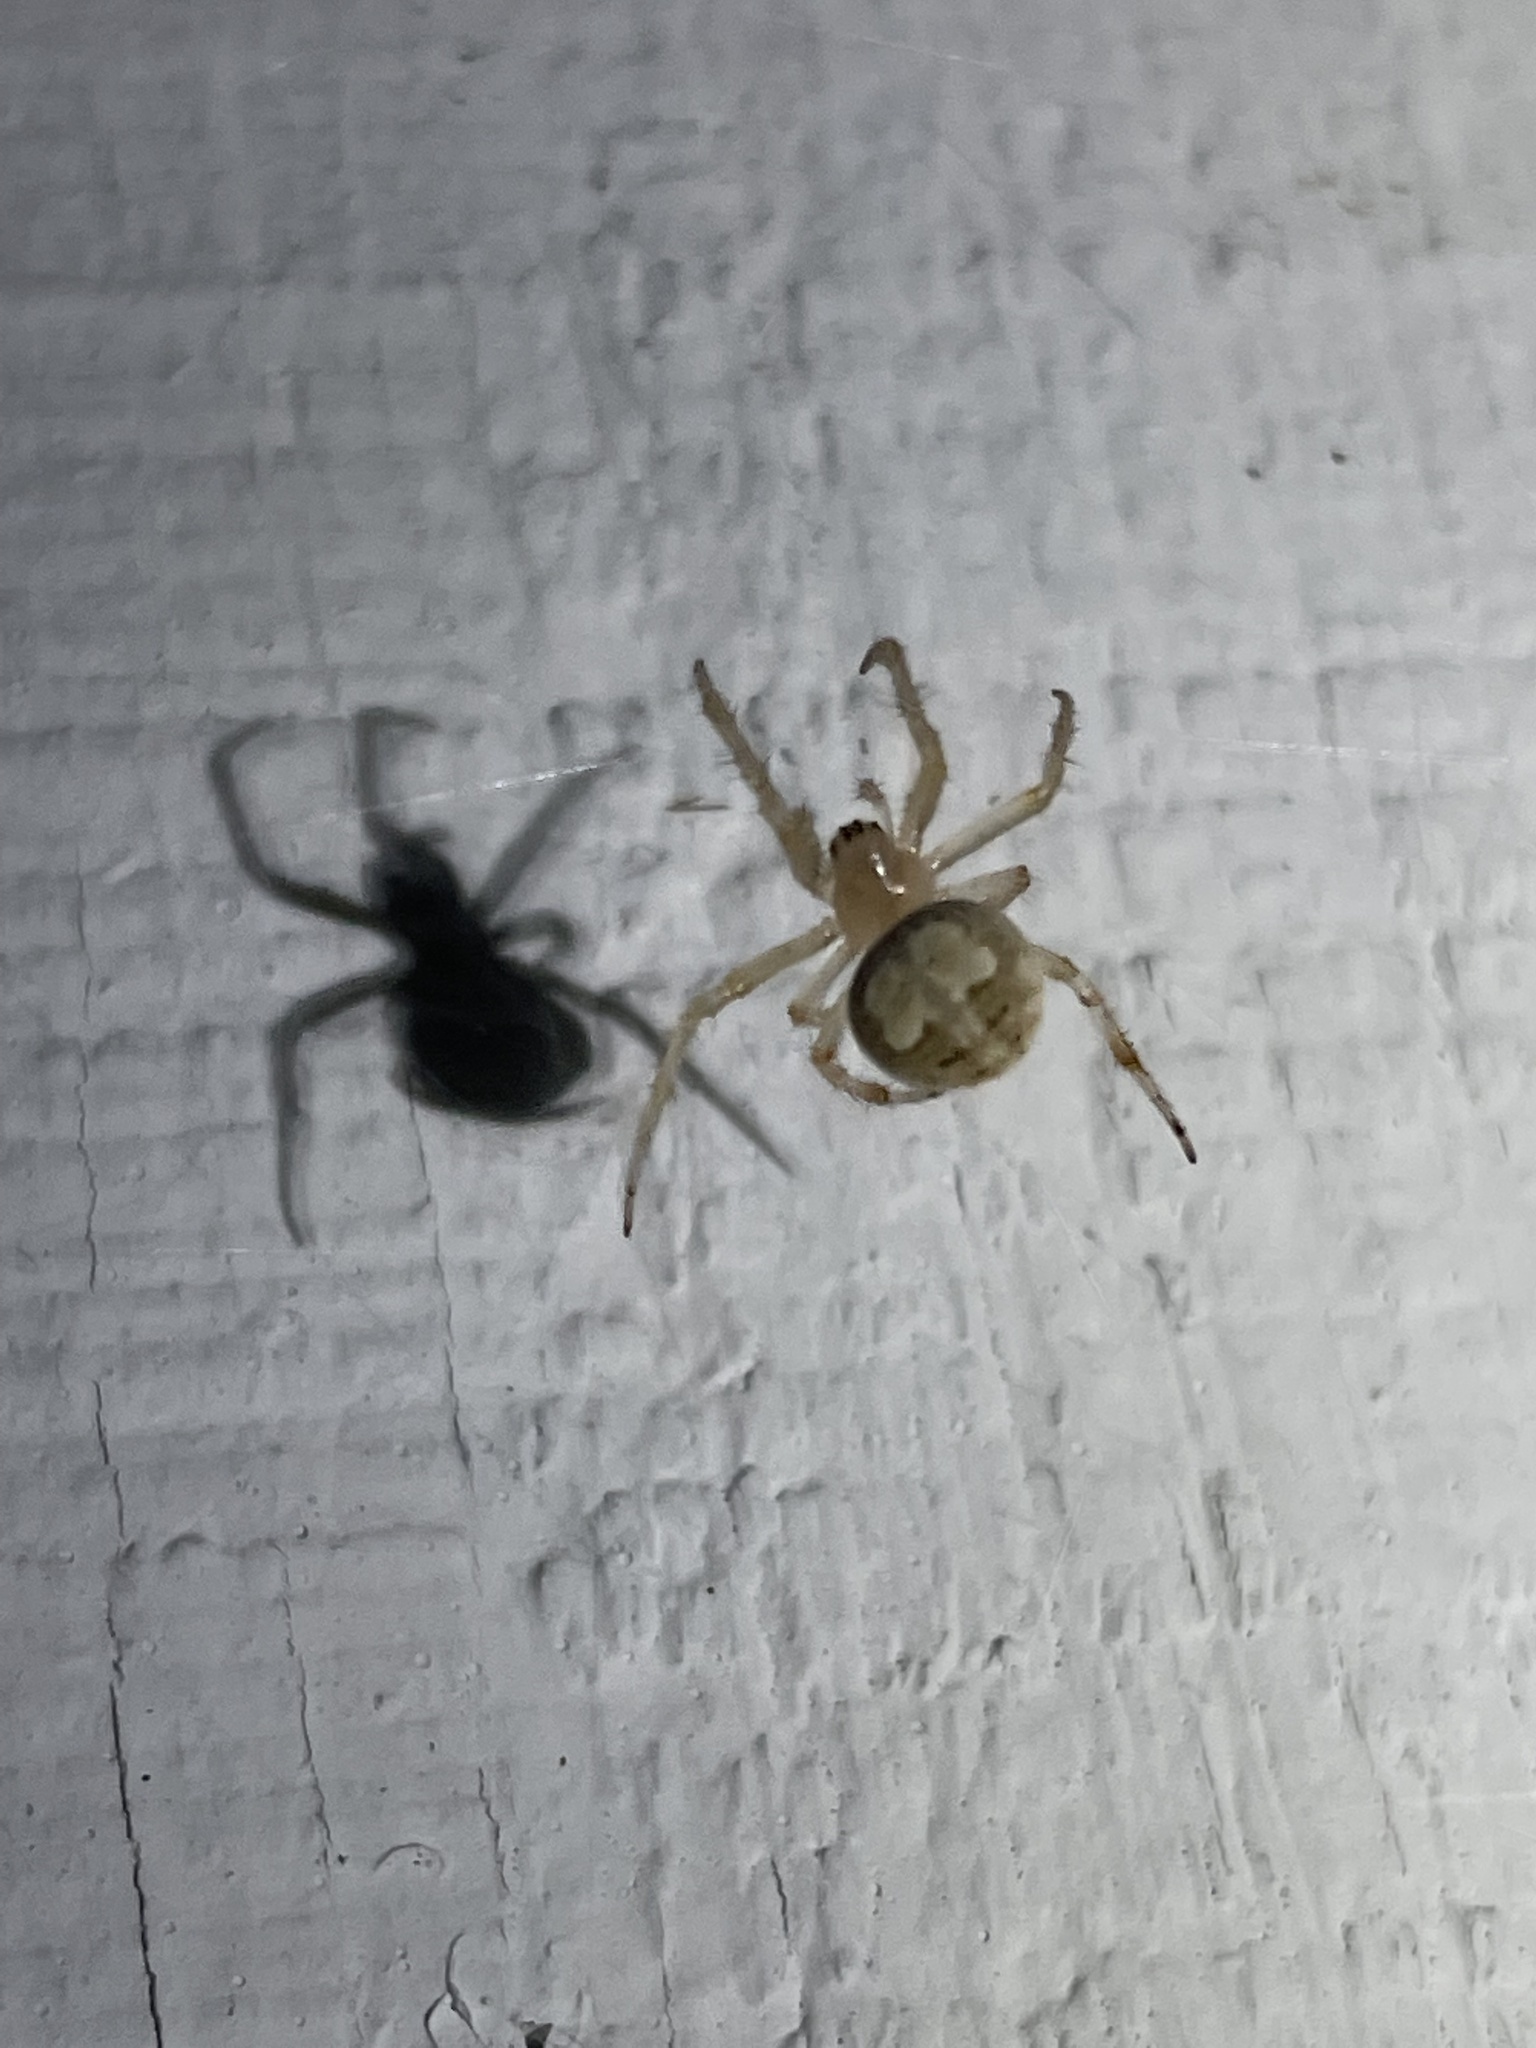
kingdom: Animalia
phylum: Arthropoda
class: Arachnida
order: Araneae
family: Araneidae
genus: Araneus
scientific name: Araneus pegnia
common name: Orb weavers
